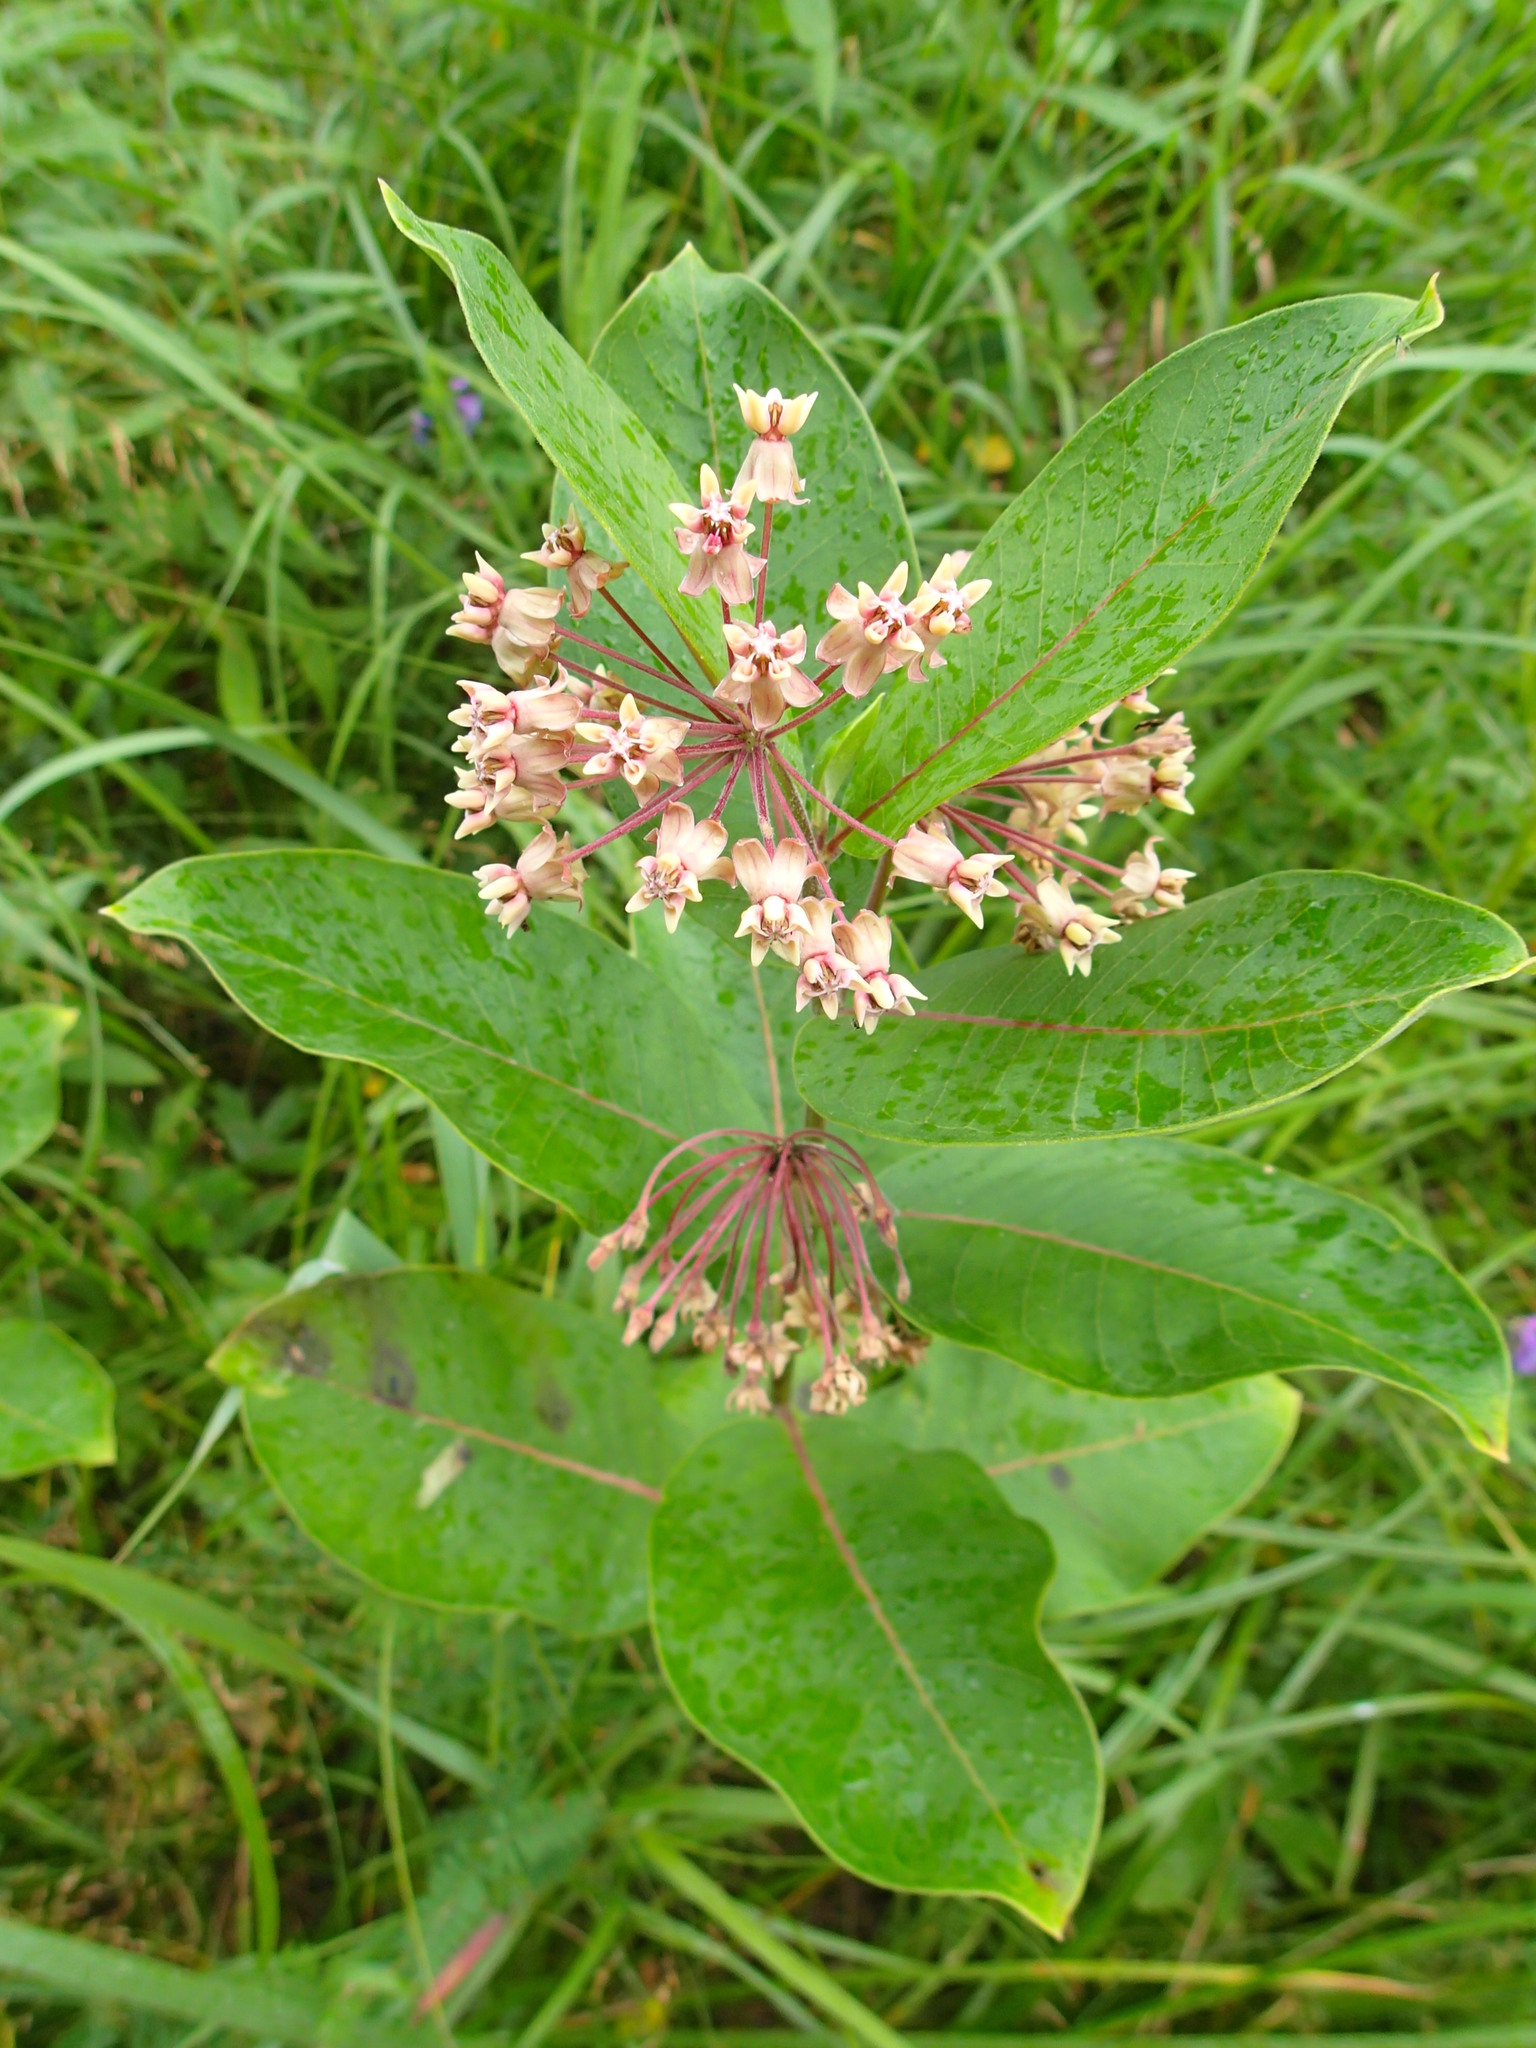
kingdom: Plantae
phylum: Tracheophyta
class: Magnoliopsida
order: Gentianales
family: Apocynaceae
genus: Asclepias
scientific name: Asclepias syriaca
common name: Common milkweed
